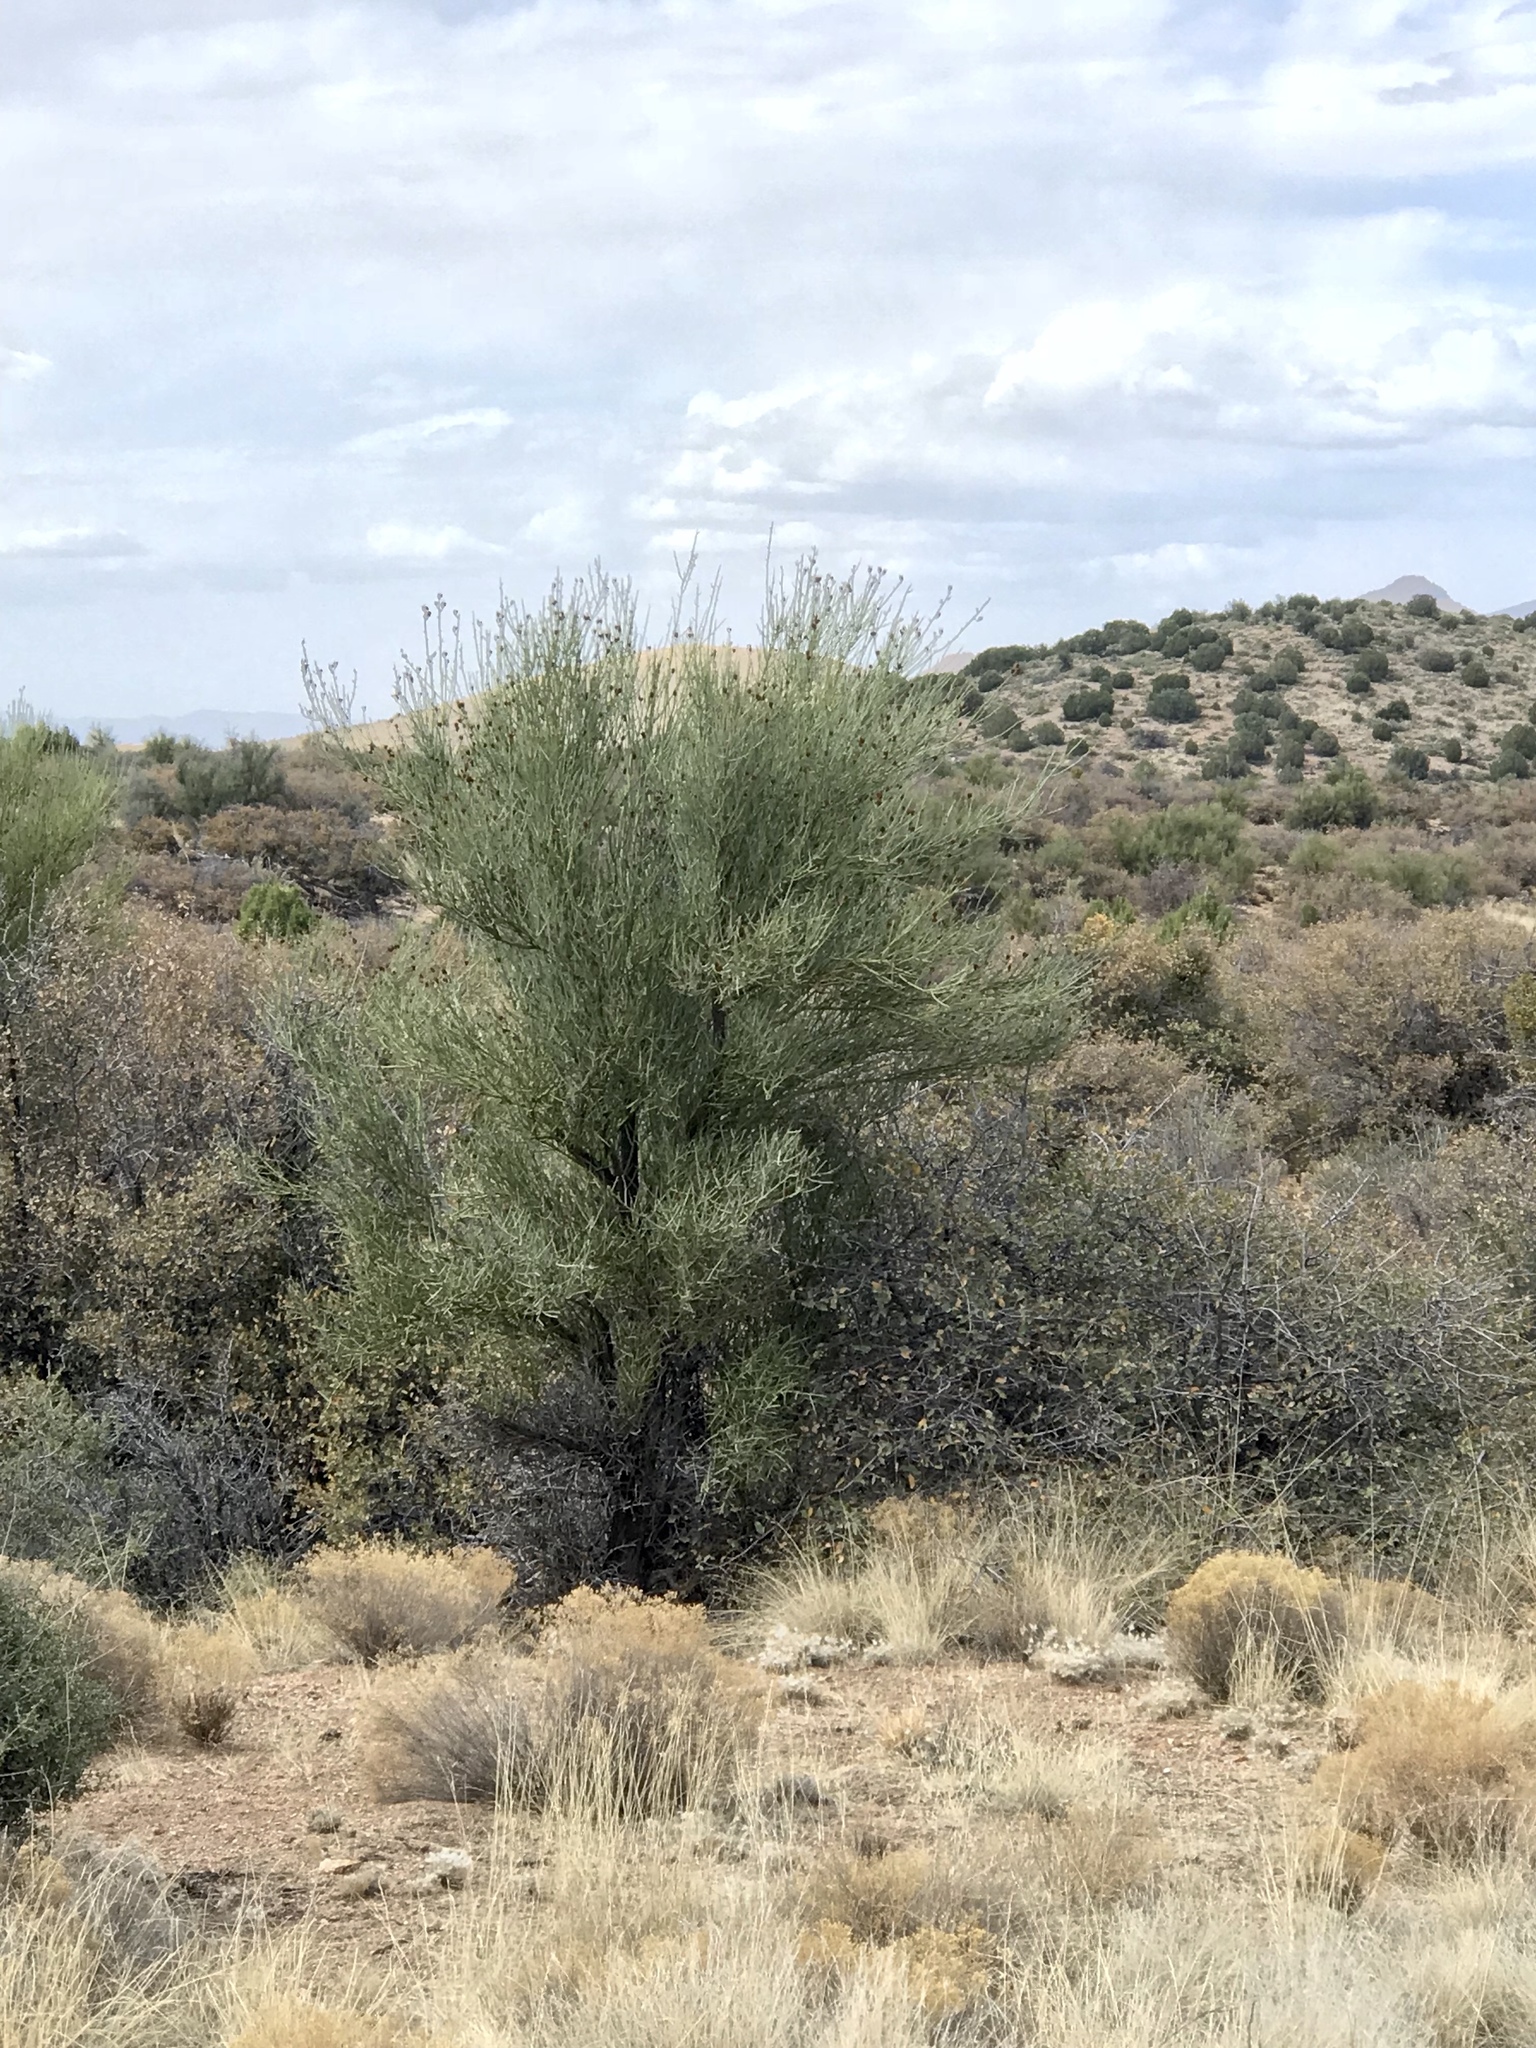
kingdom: Plantae
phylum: Tracheophyta
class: Magnoliopsida
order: Celastrales
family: Celastraceae
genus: Canotia
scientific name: Canotia holacantha
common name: Crucifixion thorns
